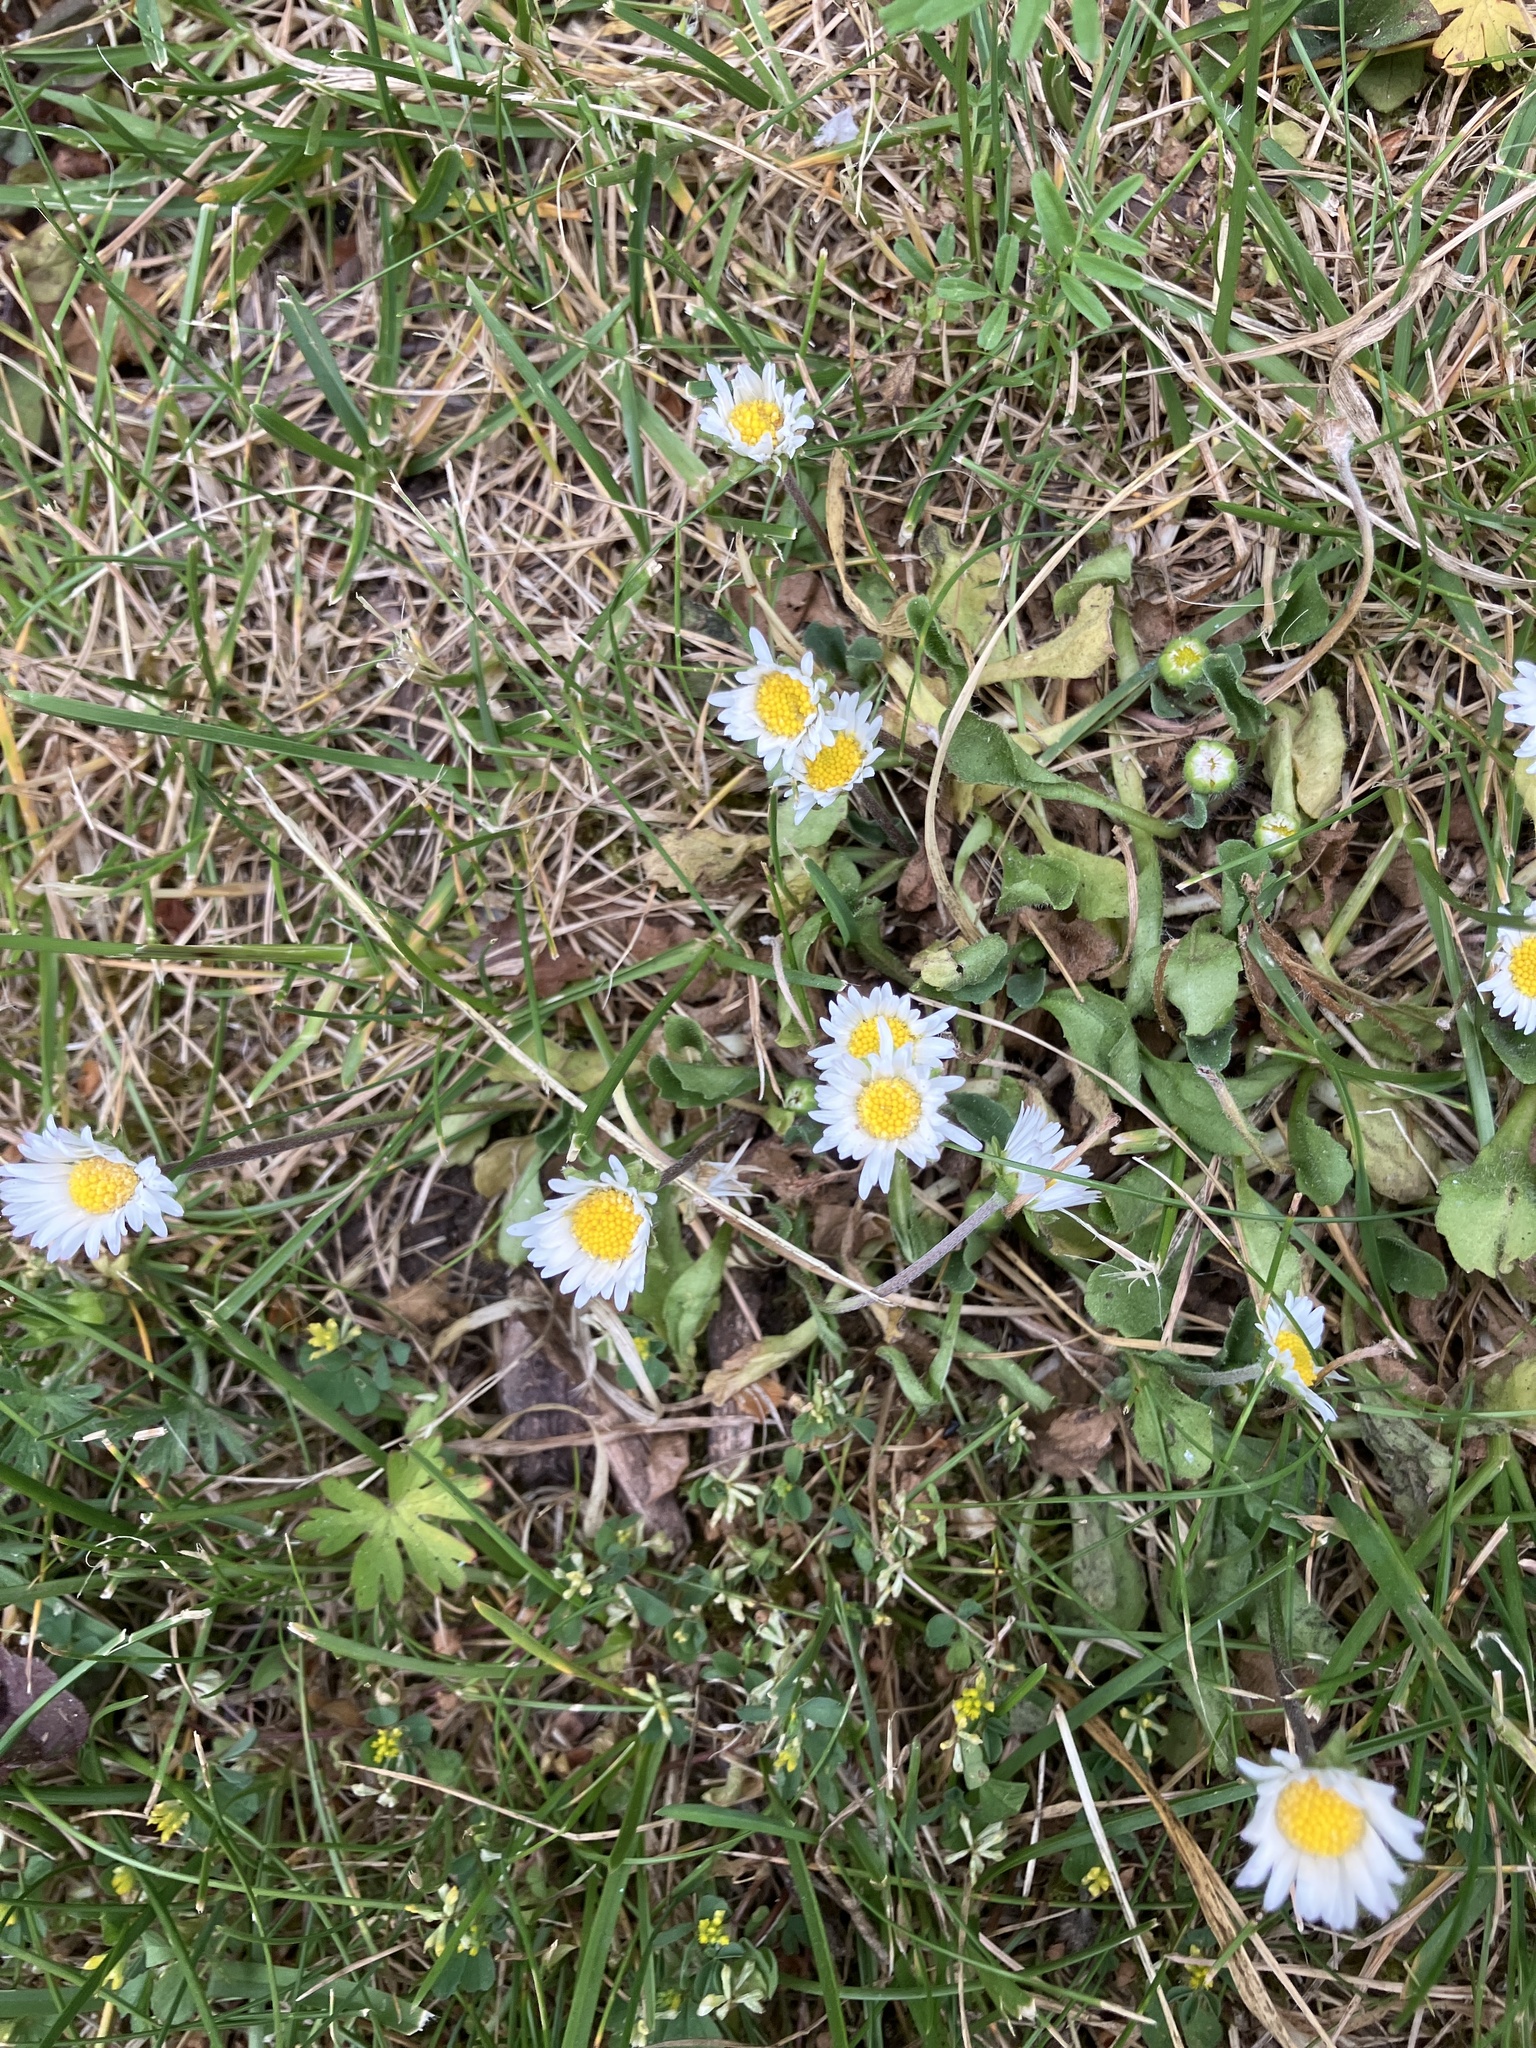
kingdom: Plantae
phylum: Tracheophyta
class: Magnoliopsida
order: Asterales
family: Asteraceae
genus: Bellis
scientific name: Bellis perennis
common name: Lawndaisy
